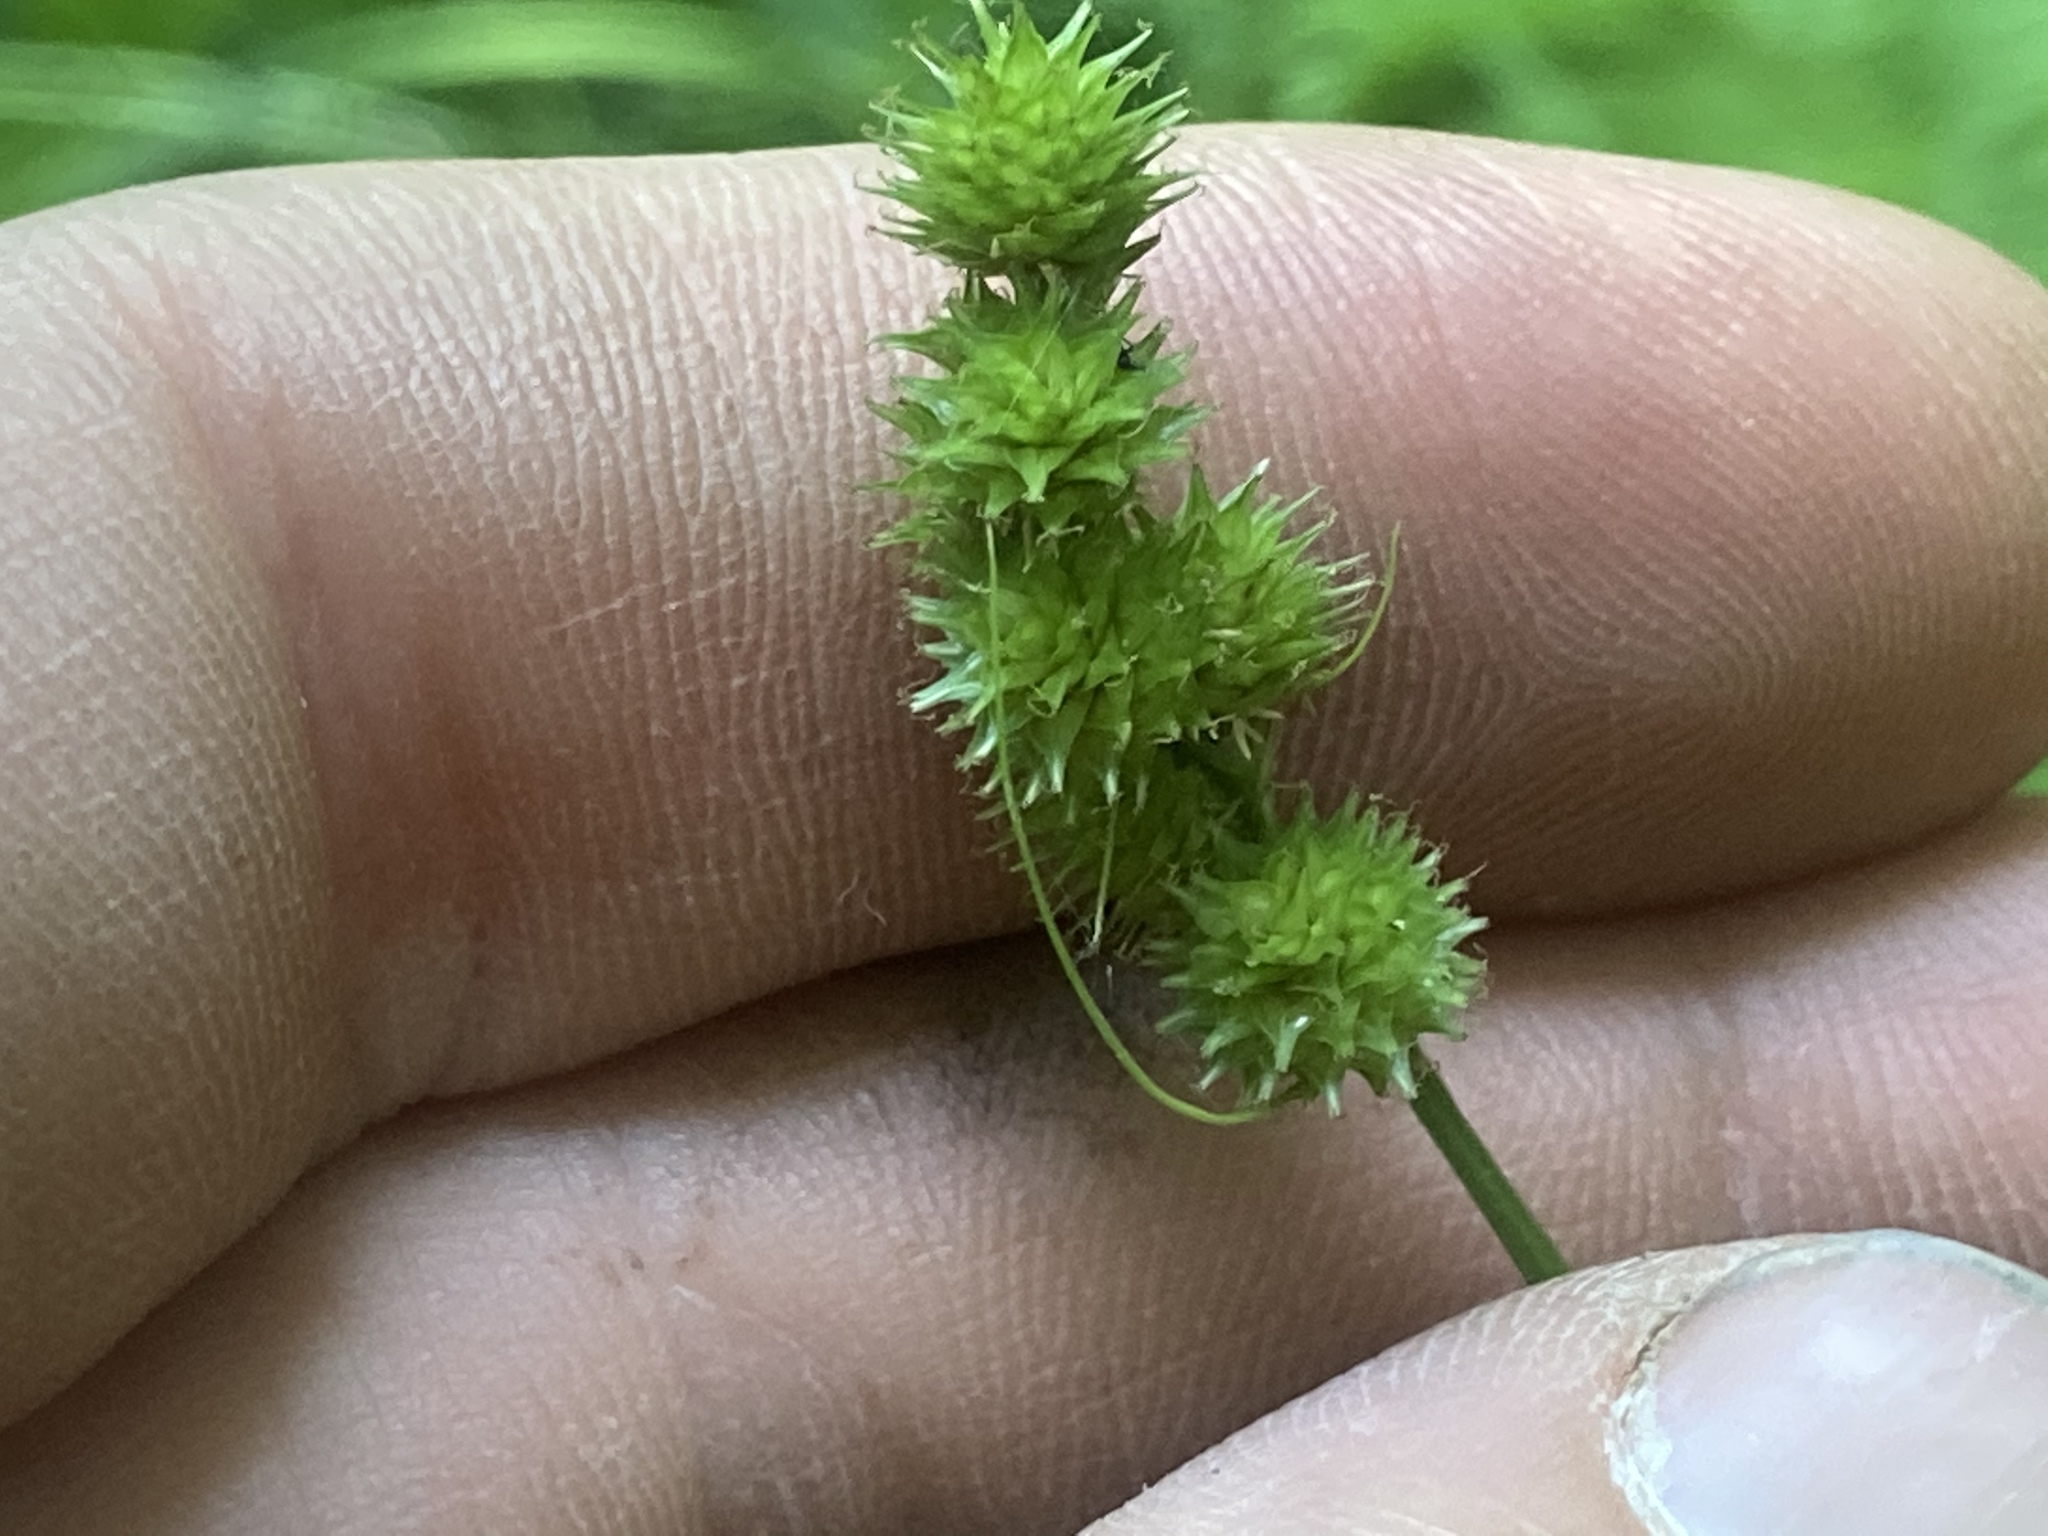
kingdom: Plantae
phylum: Tracheophyta
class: Liliopsida
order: Poales
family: Cyperaceae
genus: Carex
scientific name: Carex cristatella
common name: Crested oval sedge
